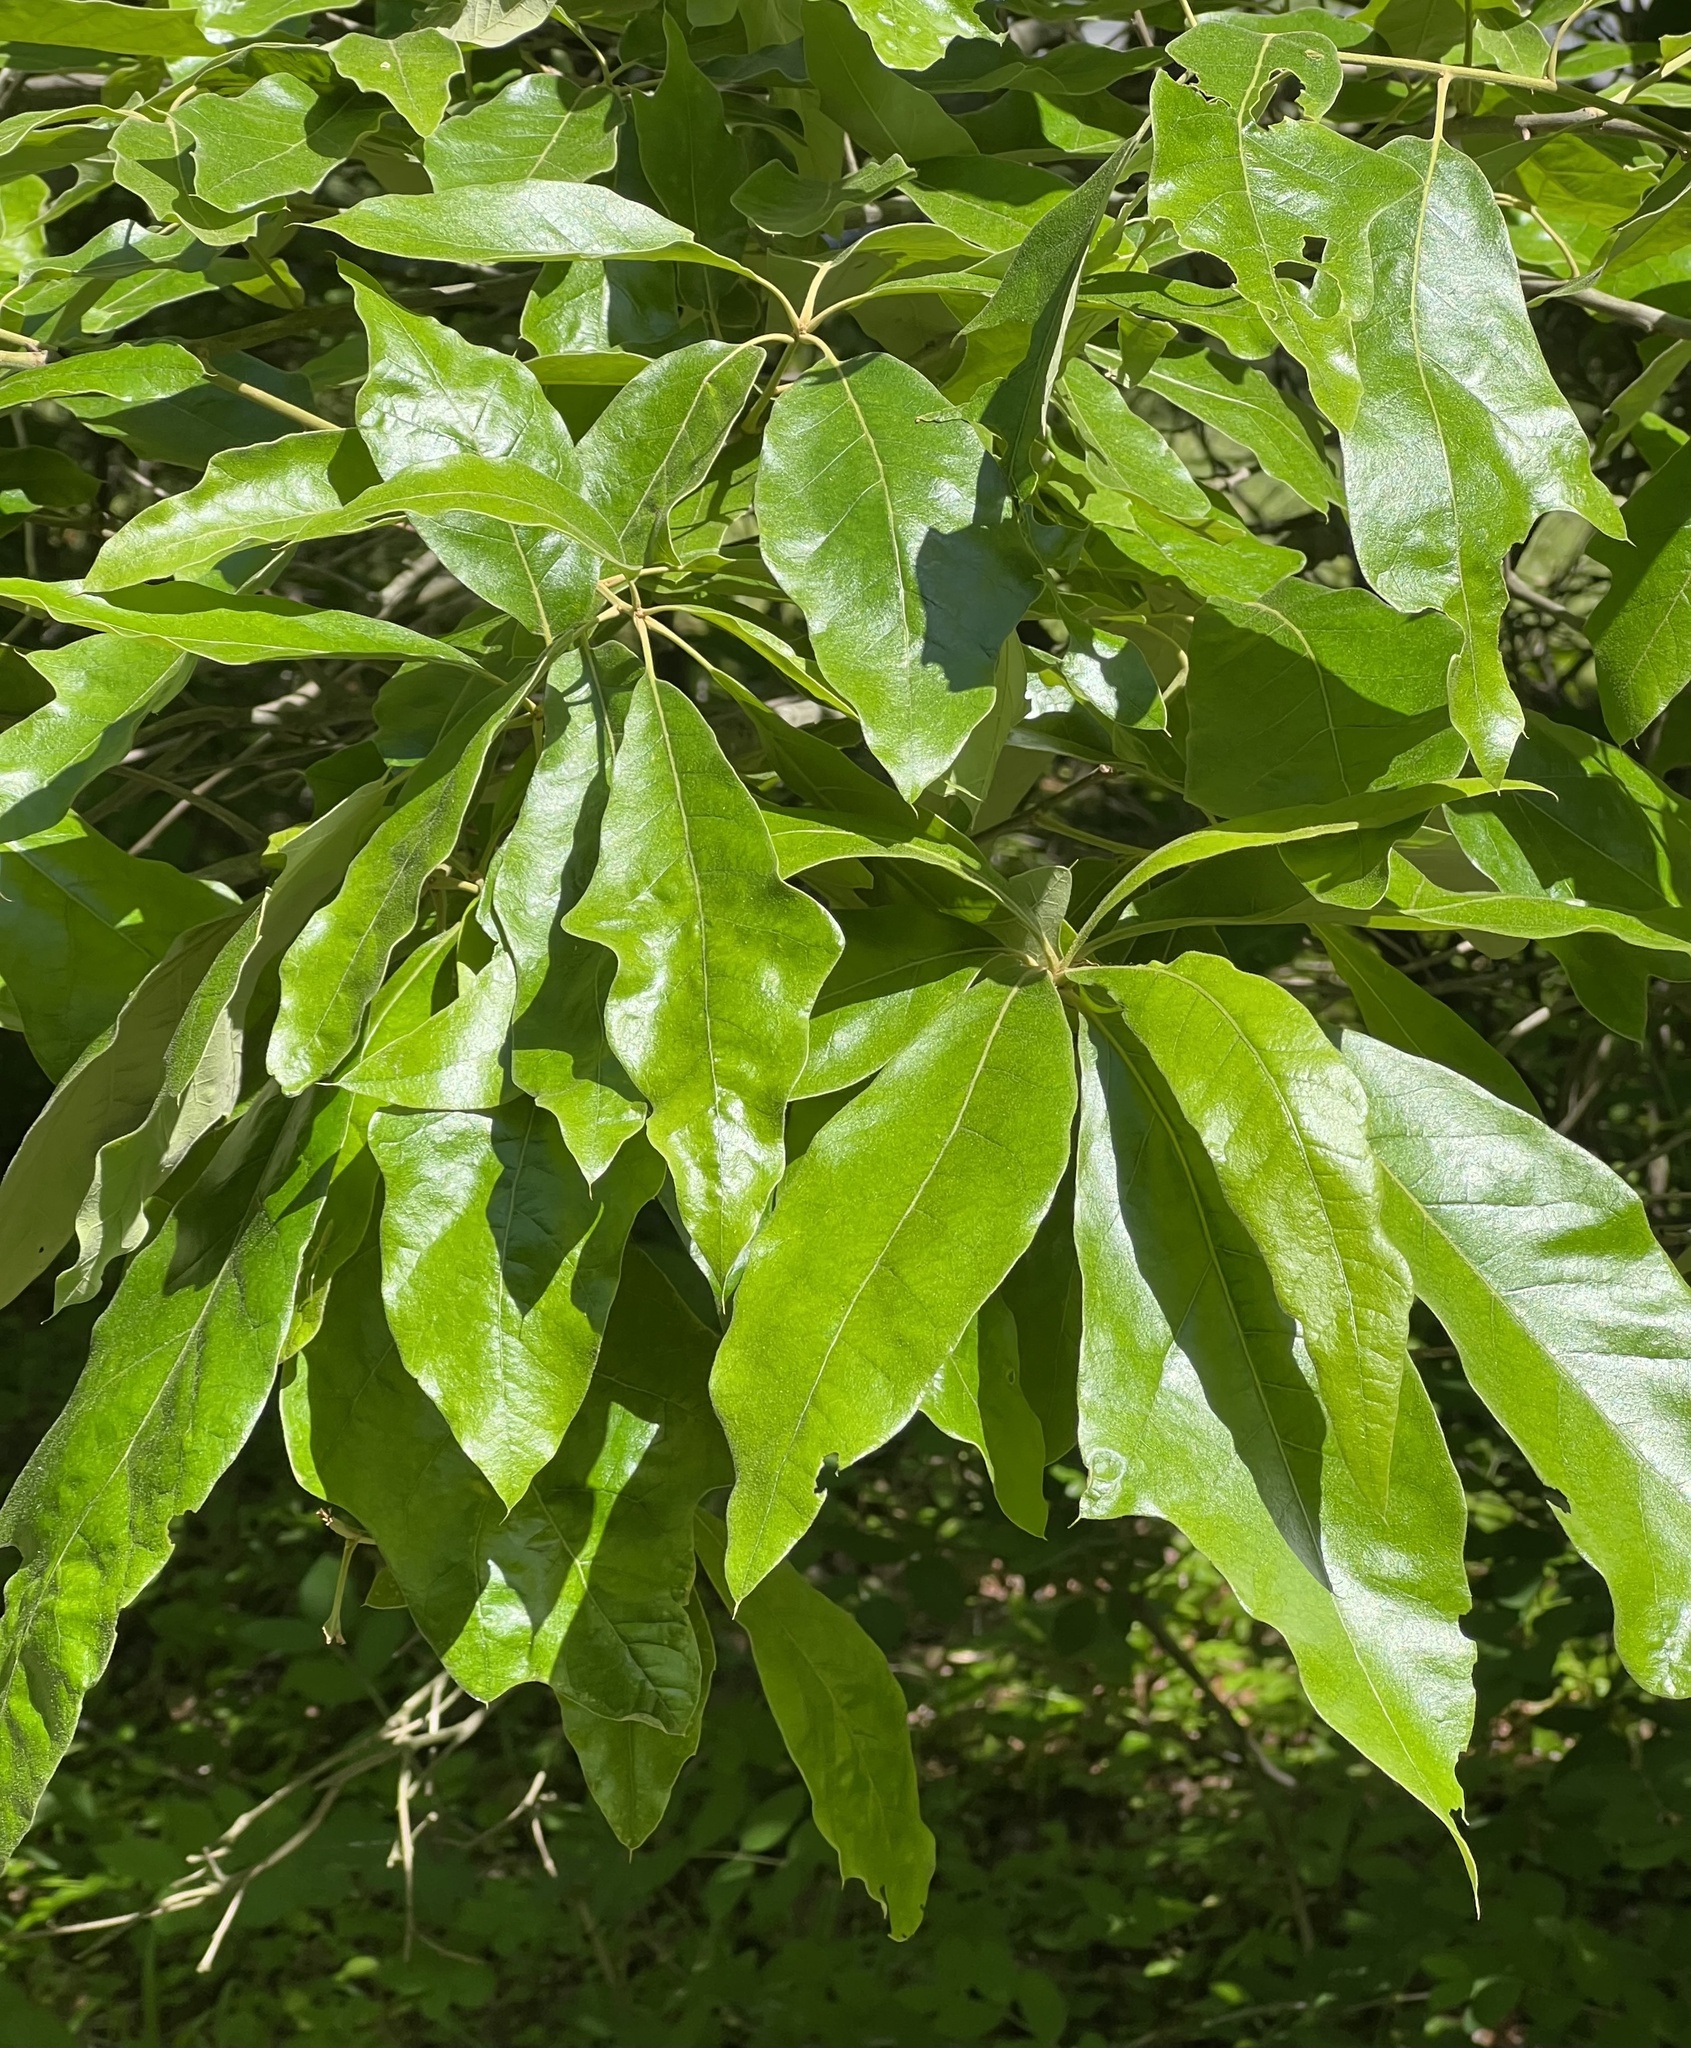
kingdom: Plantae
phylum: Tracheophyta
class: Magnoliopsida
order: Fagales
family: Fagaceae
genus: Quercus
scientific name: Quercus falcata
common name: Southern red oak
